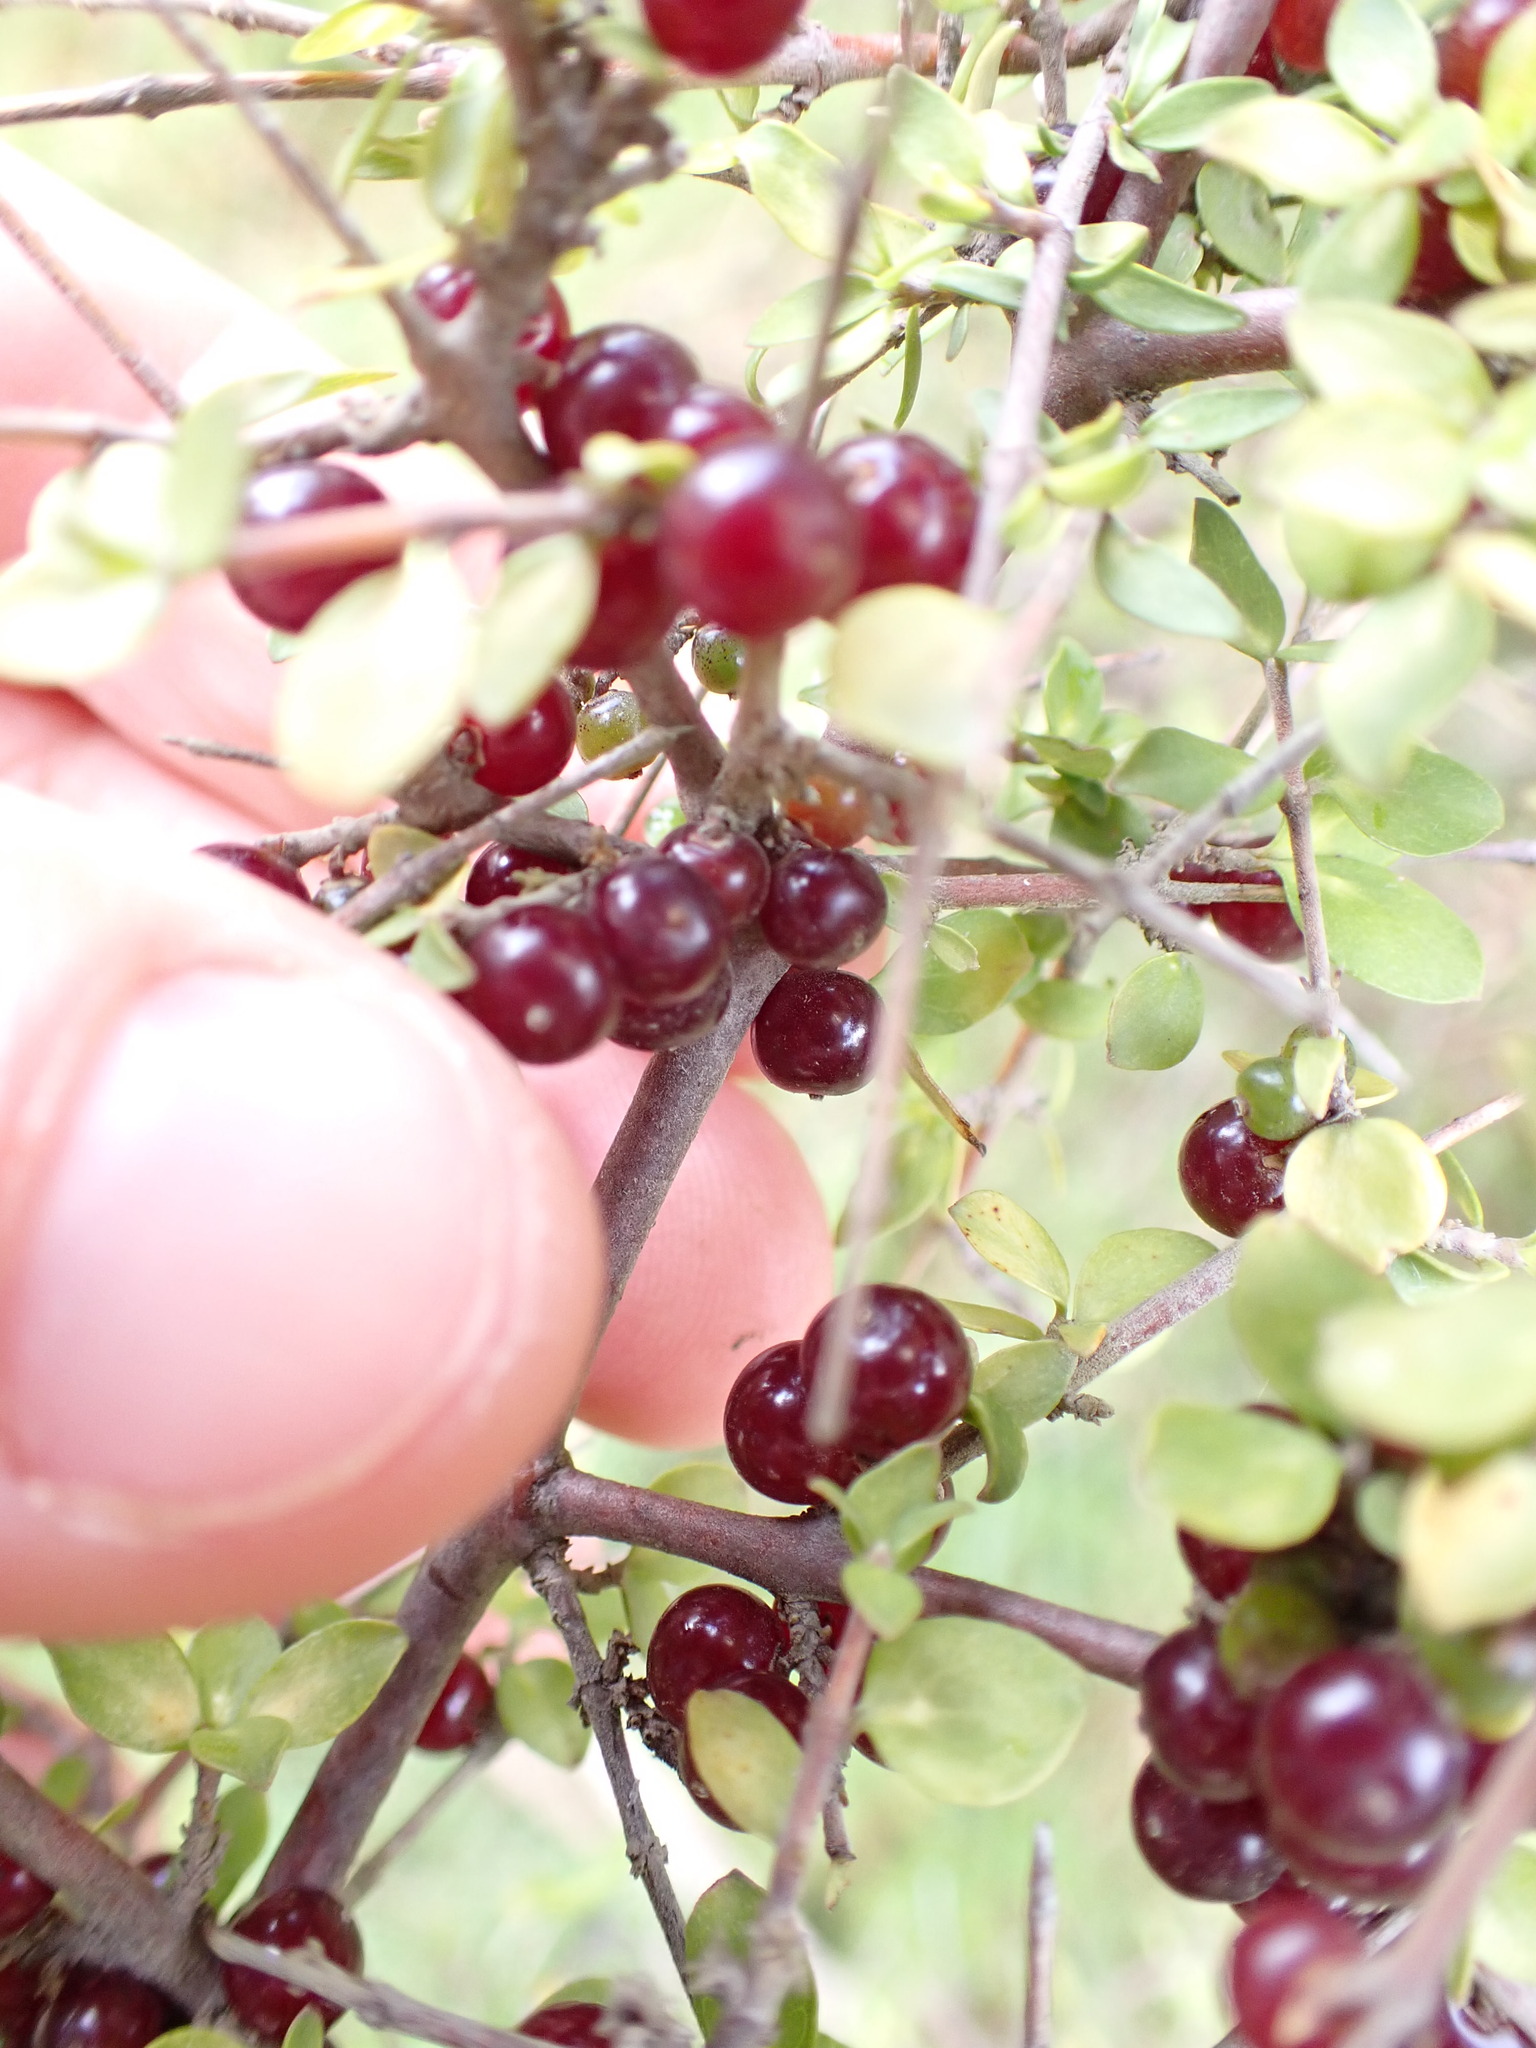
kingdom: Plantae
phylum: Tracheophyta
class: Magnoliopsida
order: Gentianales
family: Rubiaceae
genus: Coprosma
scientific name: Coprosma rhamnoides
